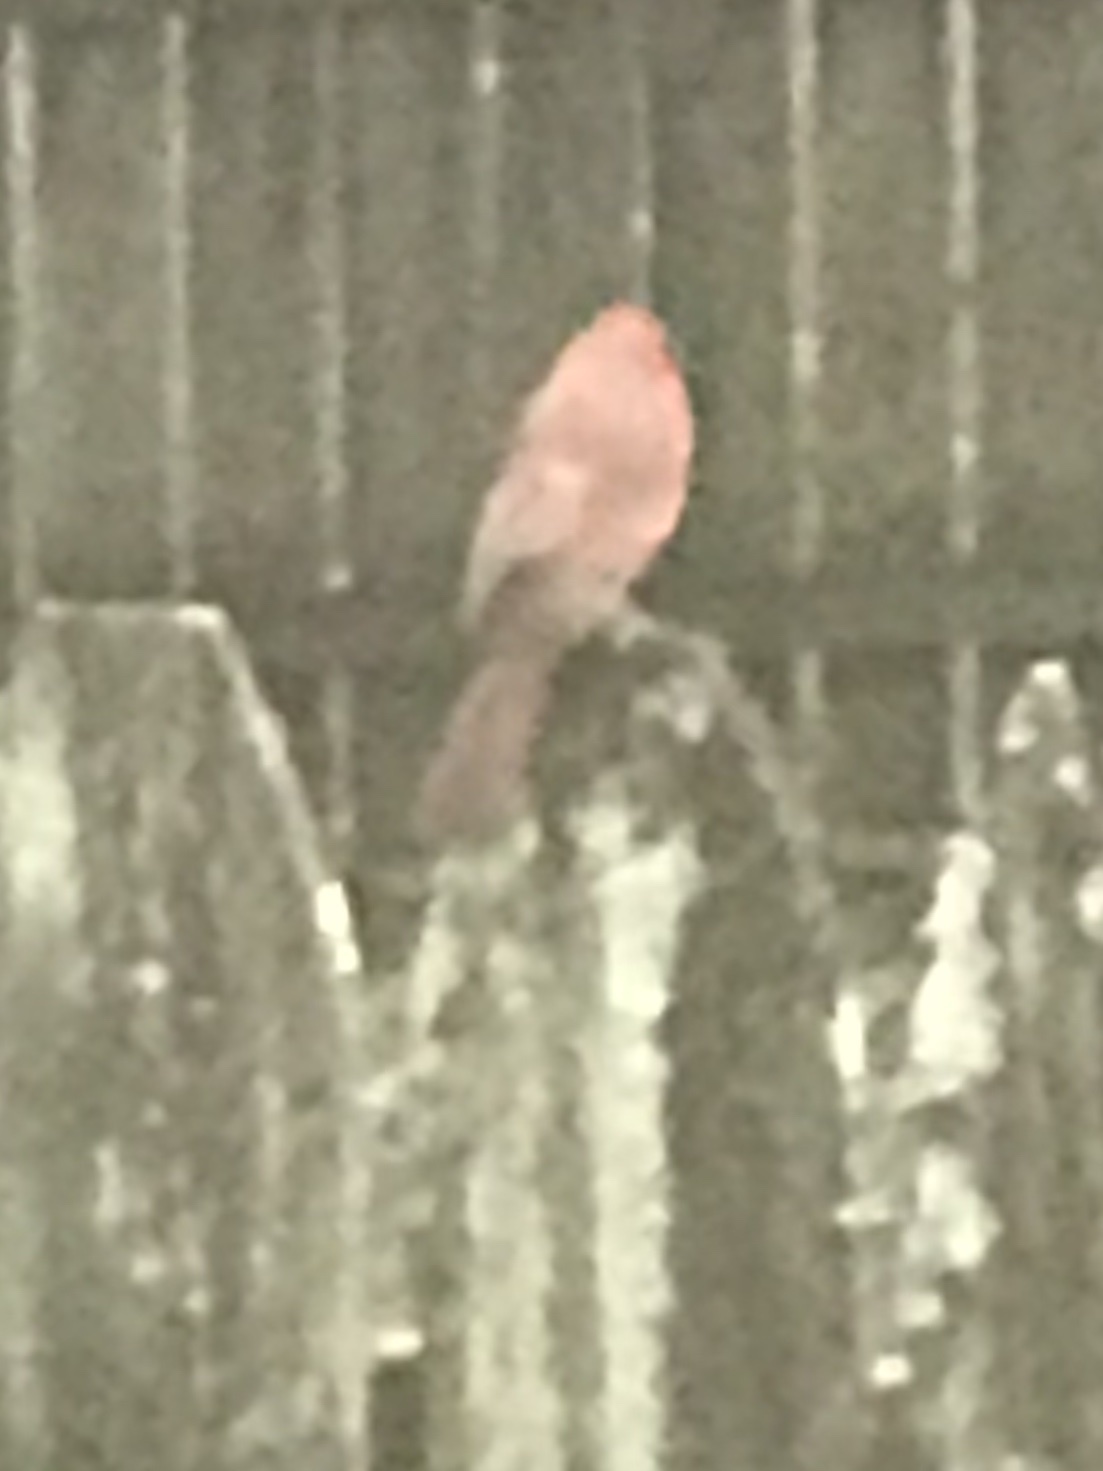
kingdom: Animalia
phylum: Chordata
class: Aves
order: Passeriformes
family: Cardinalidae
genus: Cardinalis
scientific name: Cardinalis cardinalis
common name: Northern cardinal
